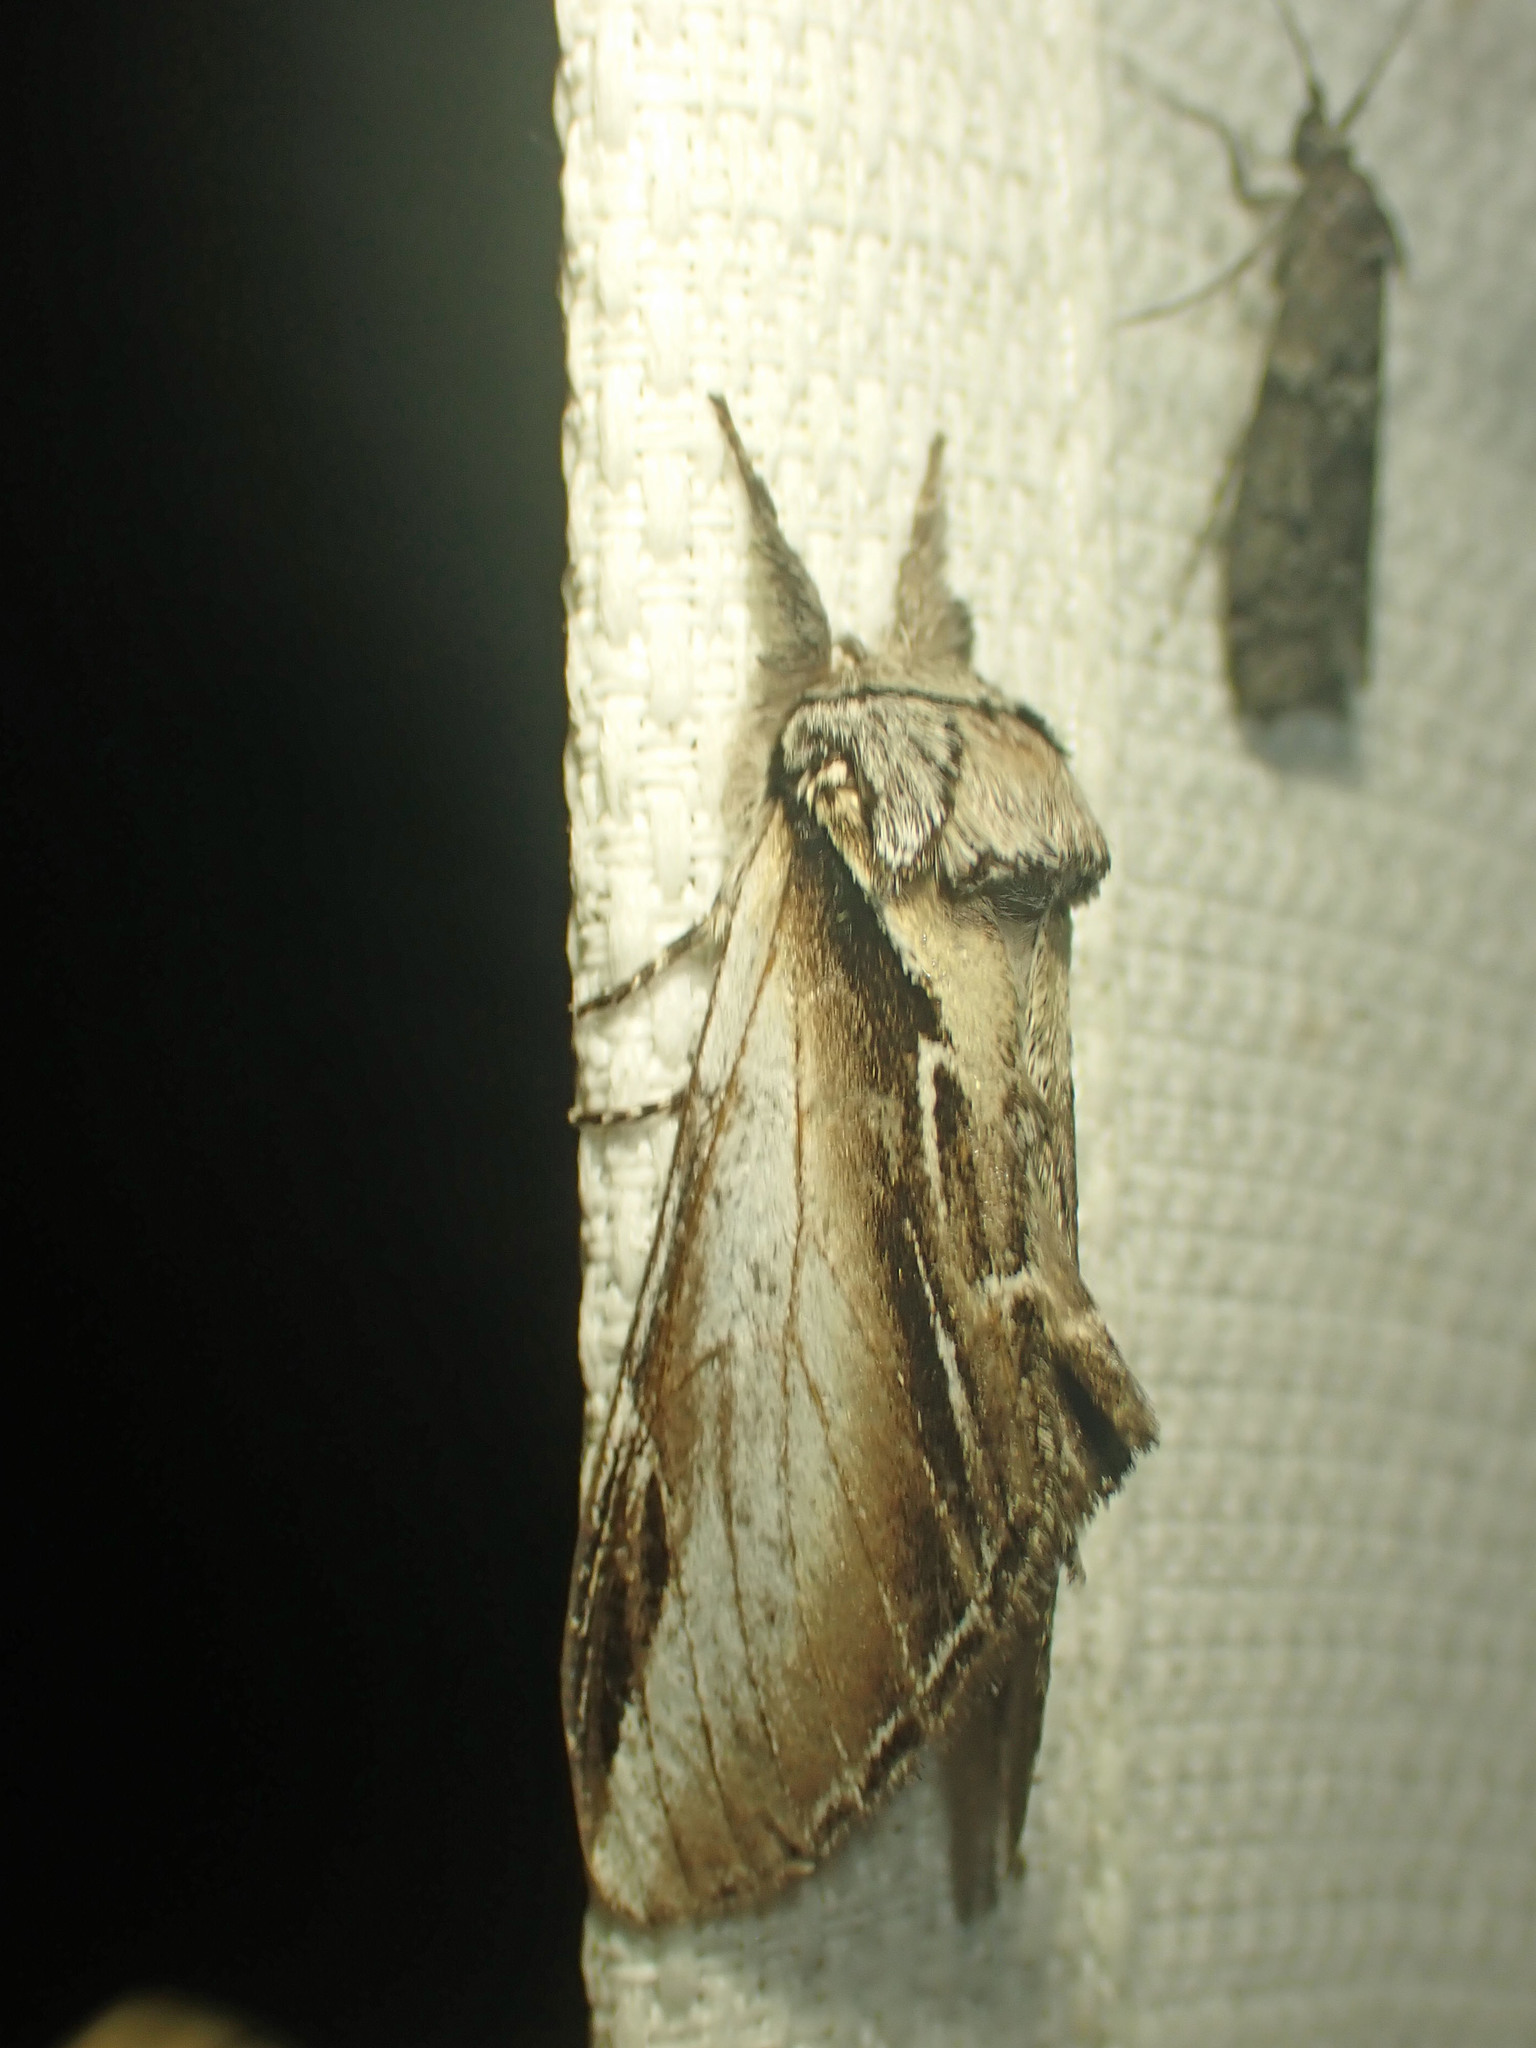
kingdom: Animalia
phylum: Arthropoda
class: Insecta
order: Lepidoptera
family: Notodontidae
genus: Pheosia
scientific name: Pheosia rimosa
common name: Black-rimmed prominent
